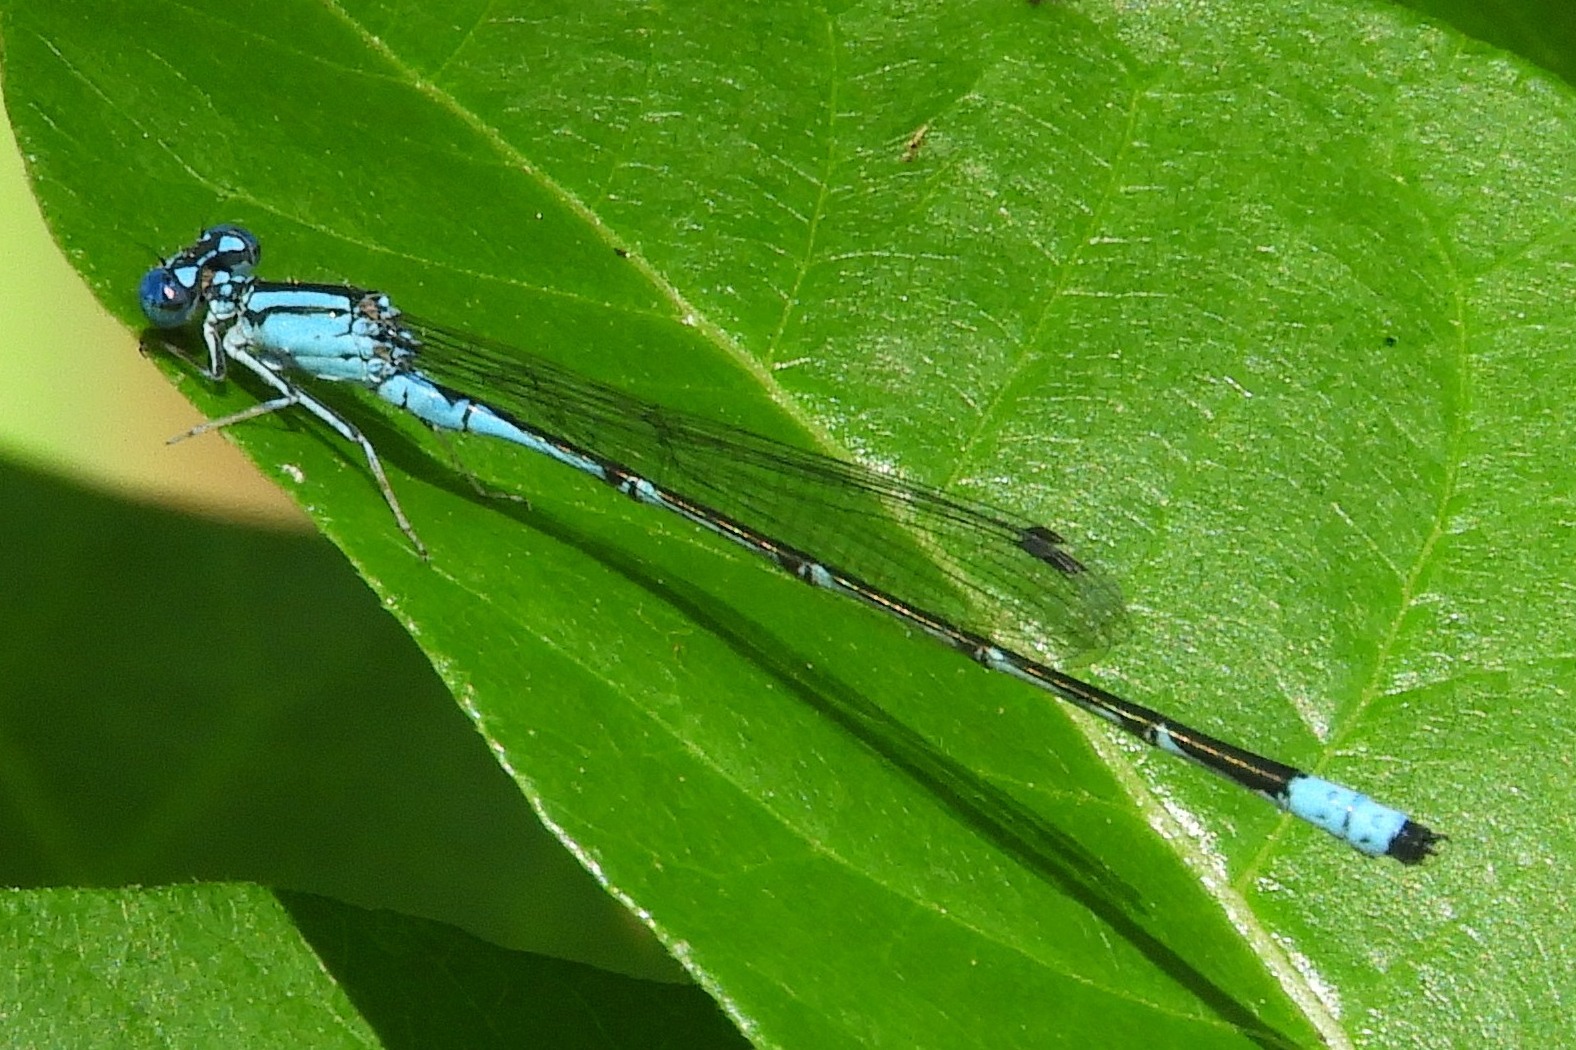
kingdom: Animalia
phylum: Arthropoda
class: Insecta
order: Odonata
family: Coenagrionidae
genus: Enallagma
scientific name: Enallagma traviatum
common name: Slender bluet
